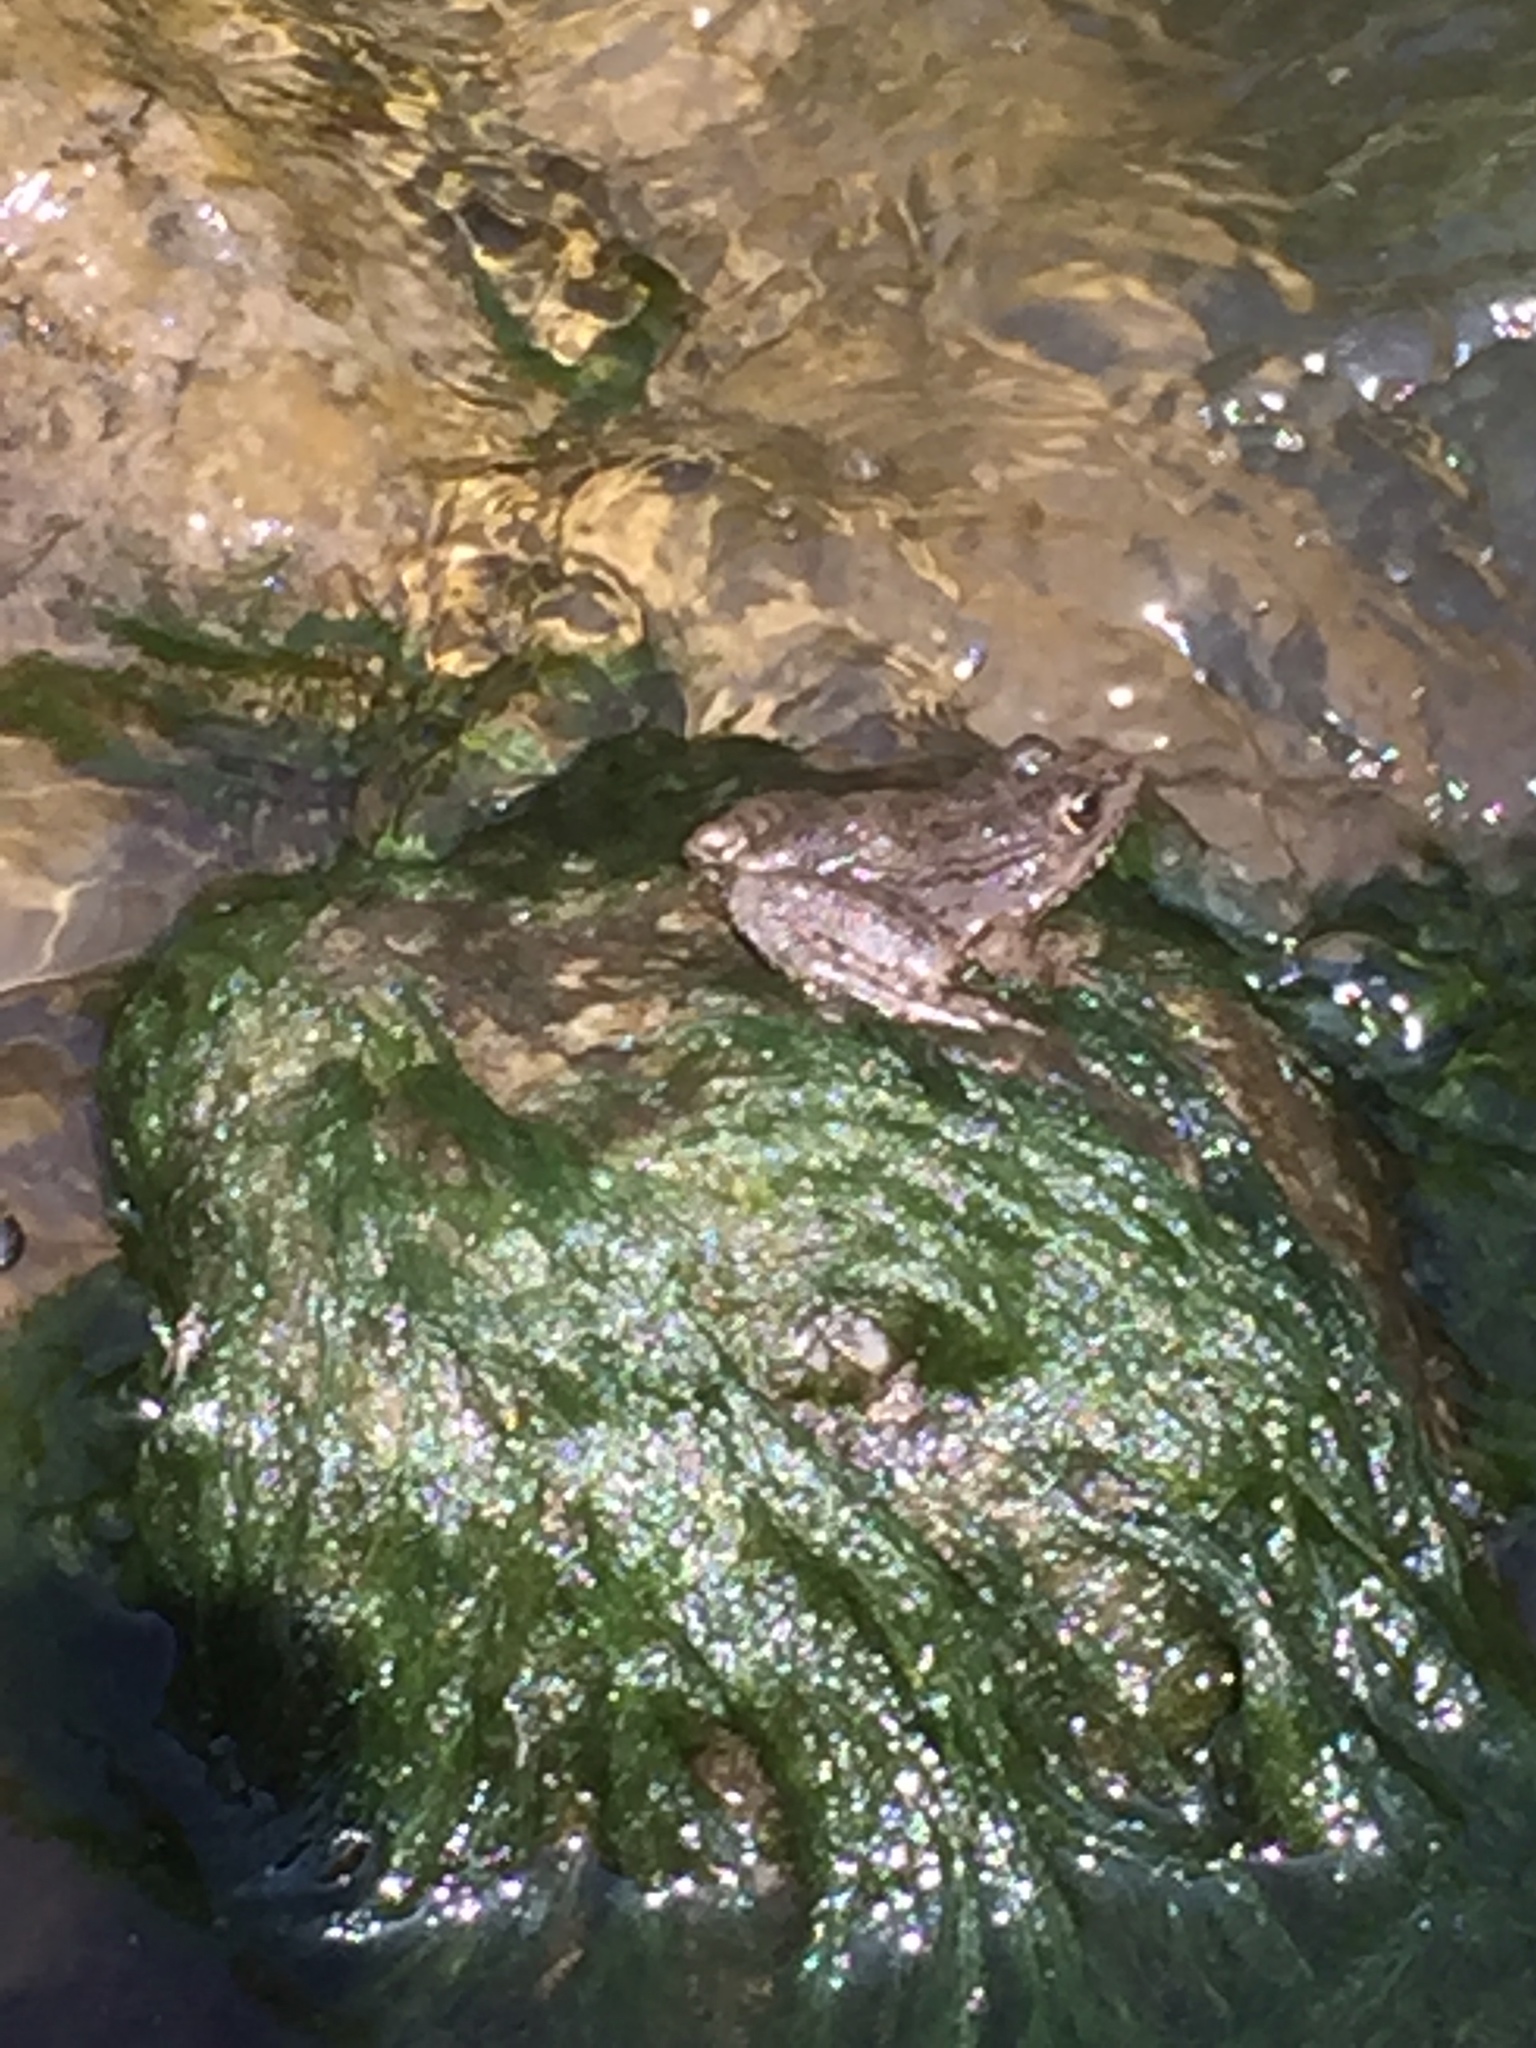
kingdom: Animalia
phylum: Chordata
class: Amphibia
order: Anura
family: Ranidae
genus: Pelophylax
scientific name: Pelophylax ridibundus
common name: Marsh frog
